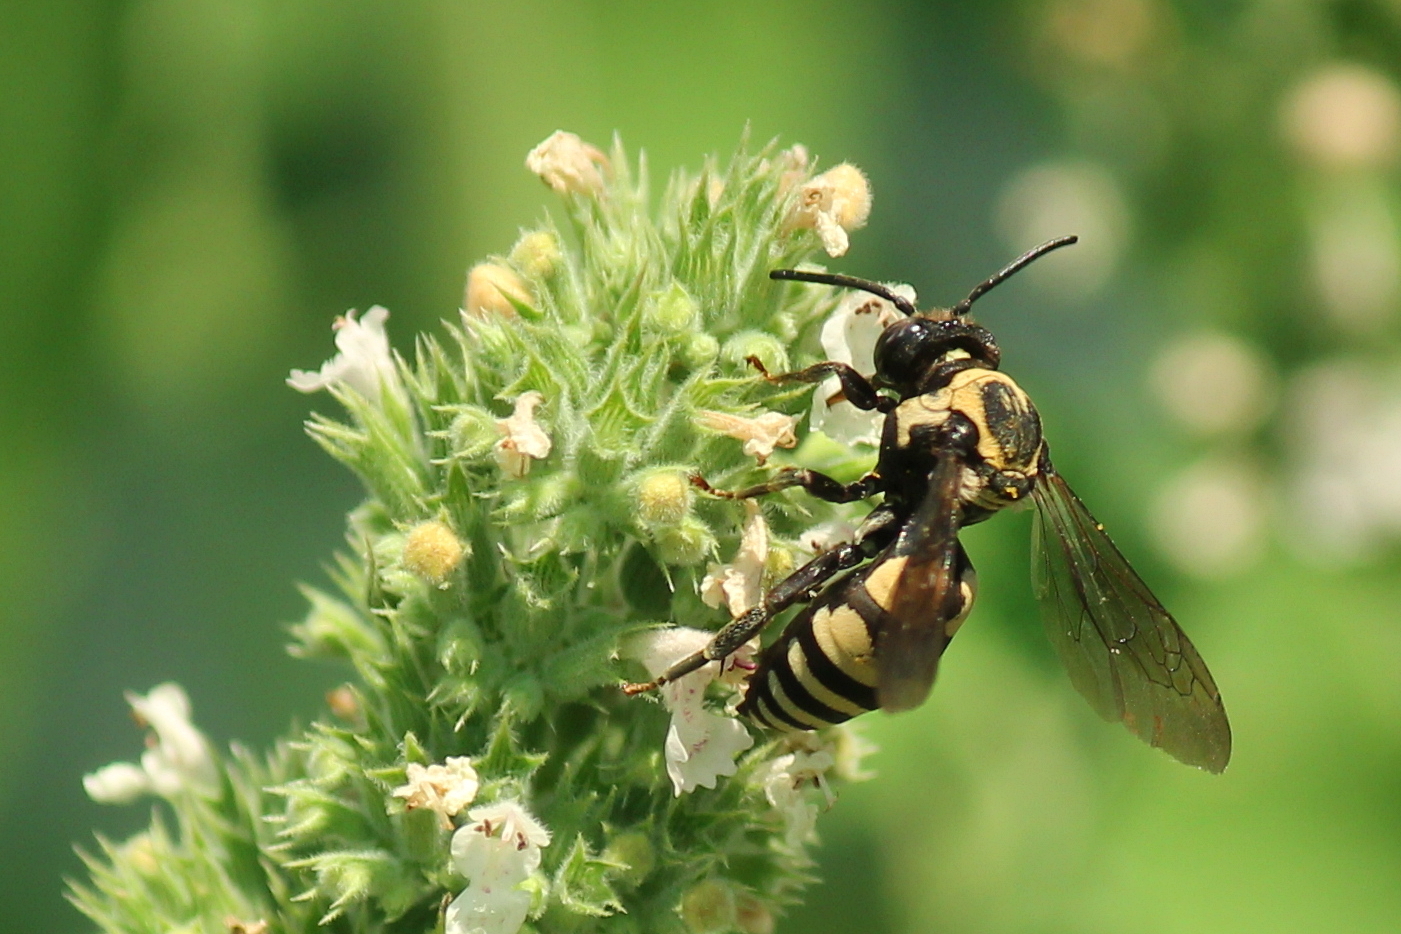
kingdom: Animalia
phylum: Arthropoda
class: Insecta
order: Hymenoptera
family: Apidae
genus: Triepeolus
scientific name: Triepeolus remigatus
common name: Squash longhorn-cuckoo
